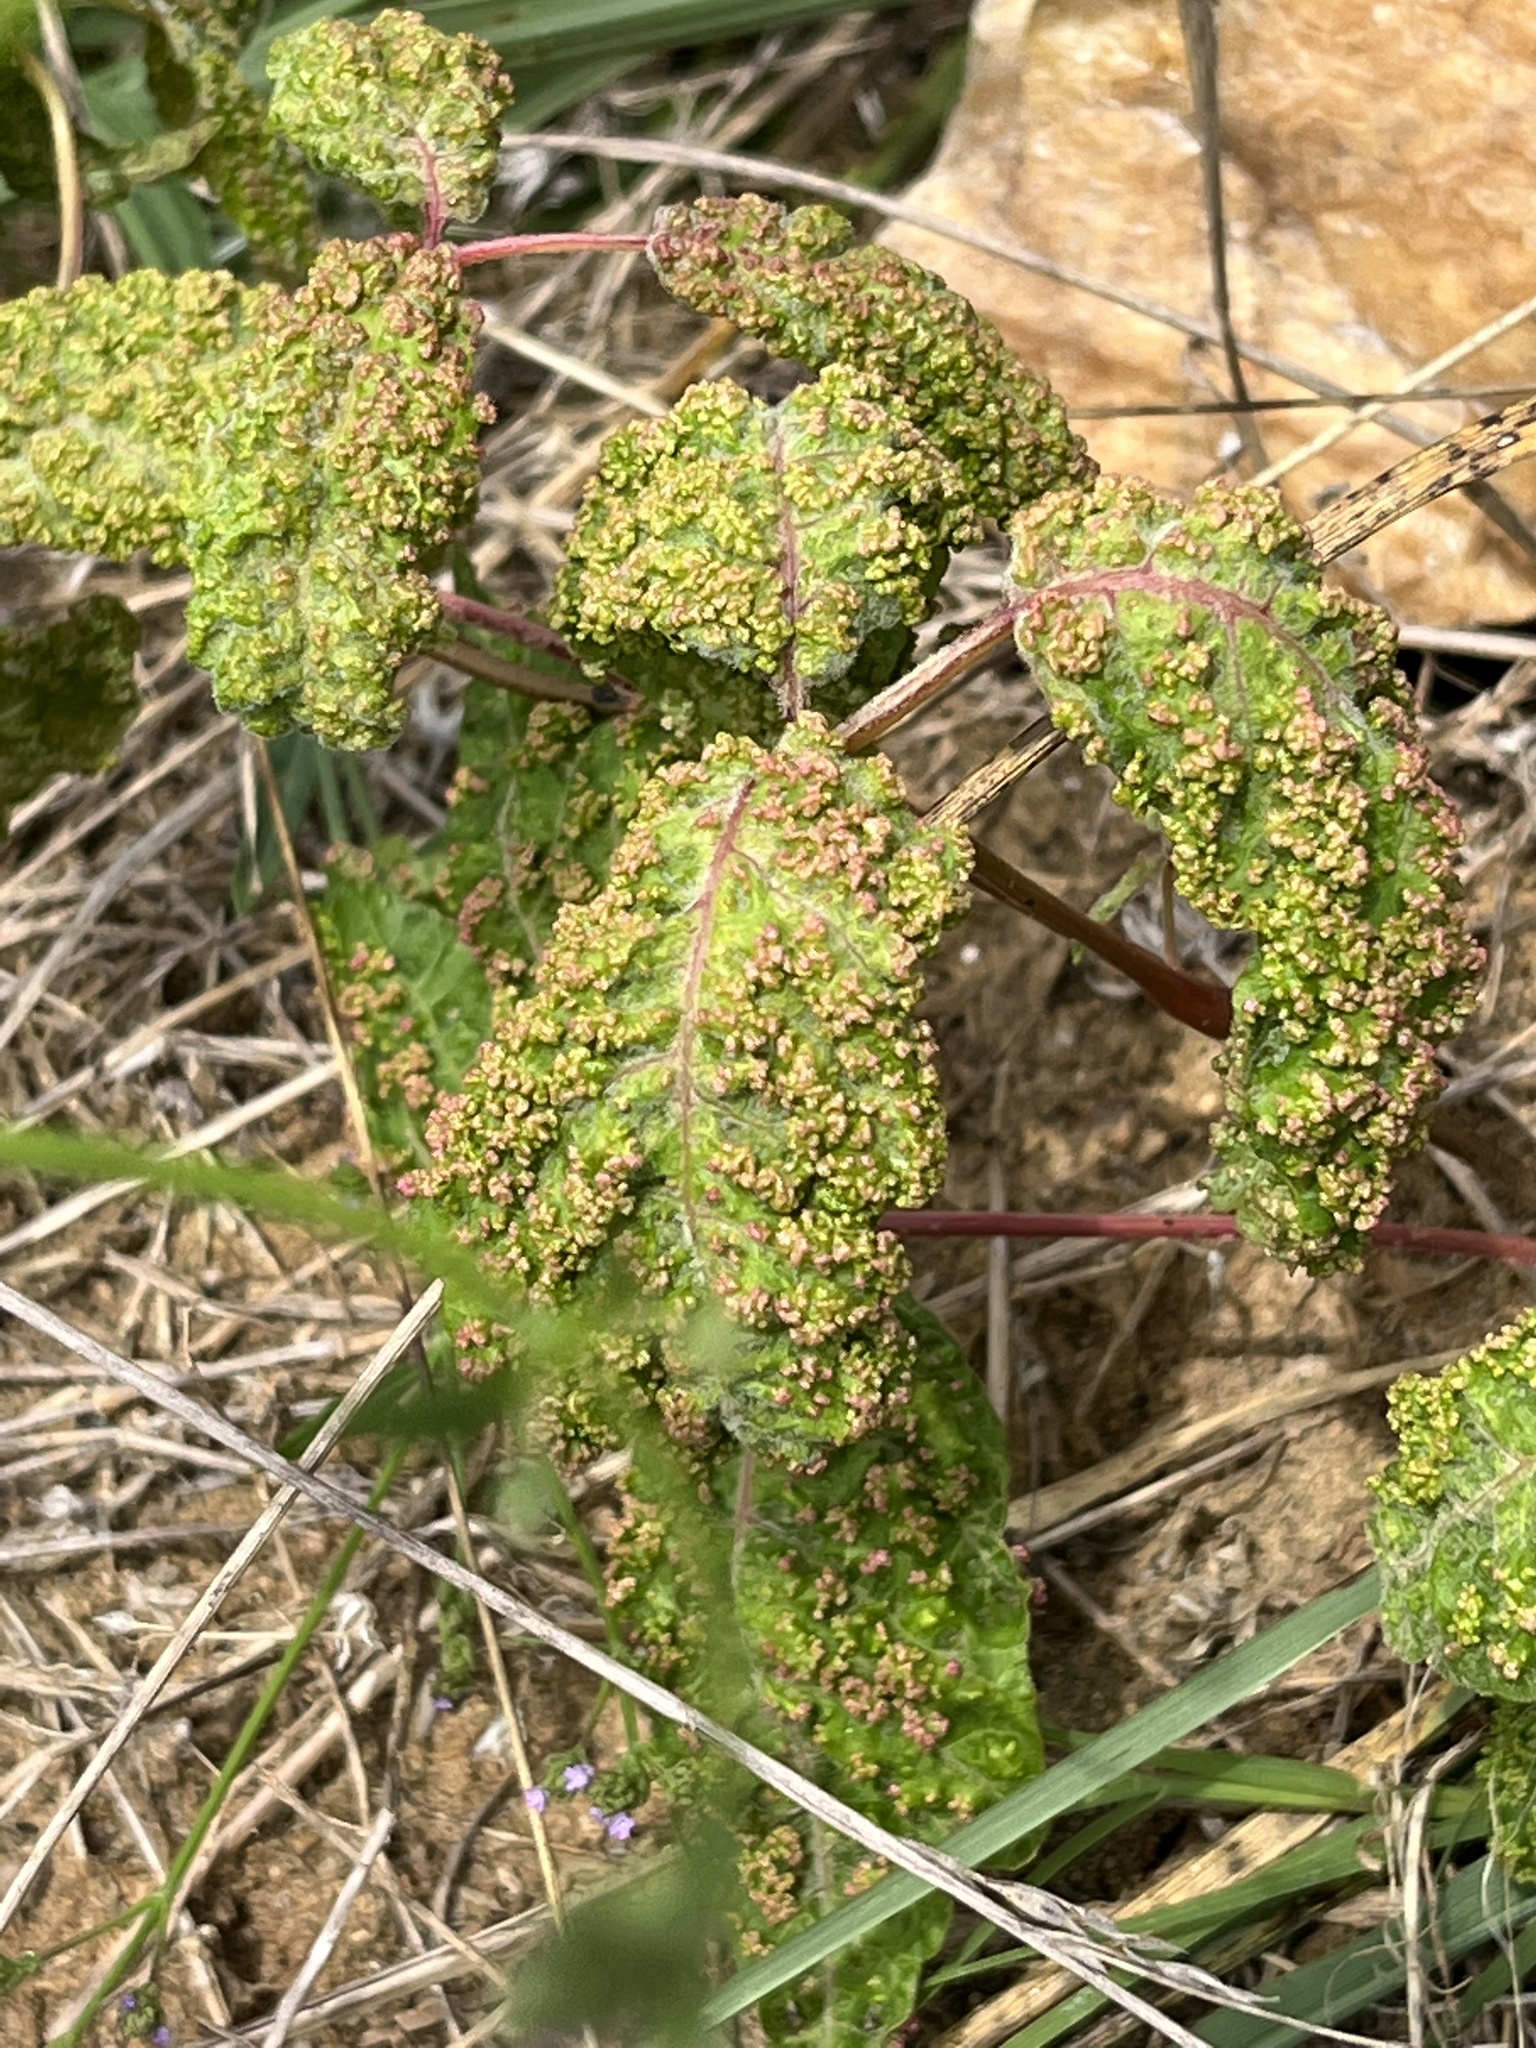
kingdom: Animalia
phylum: Arthropoda
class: Arachnida
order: Trombidiformes
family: Eriophyidae
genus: Aculops
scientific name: Aculops
